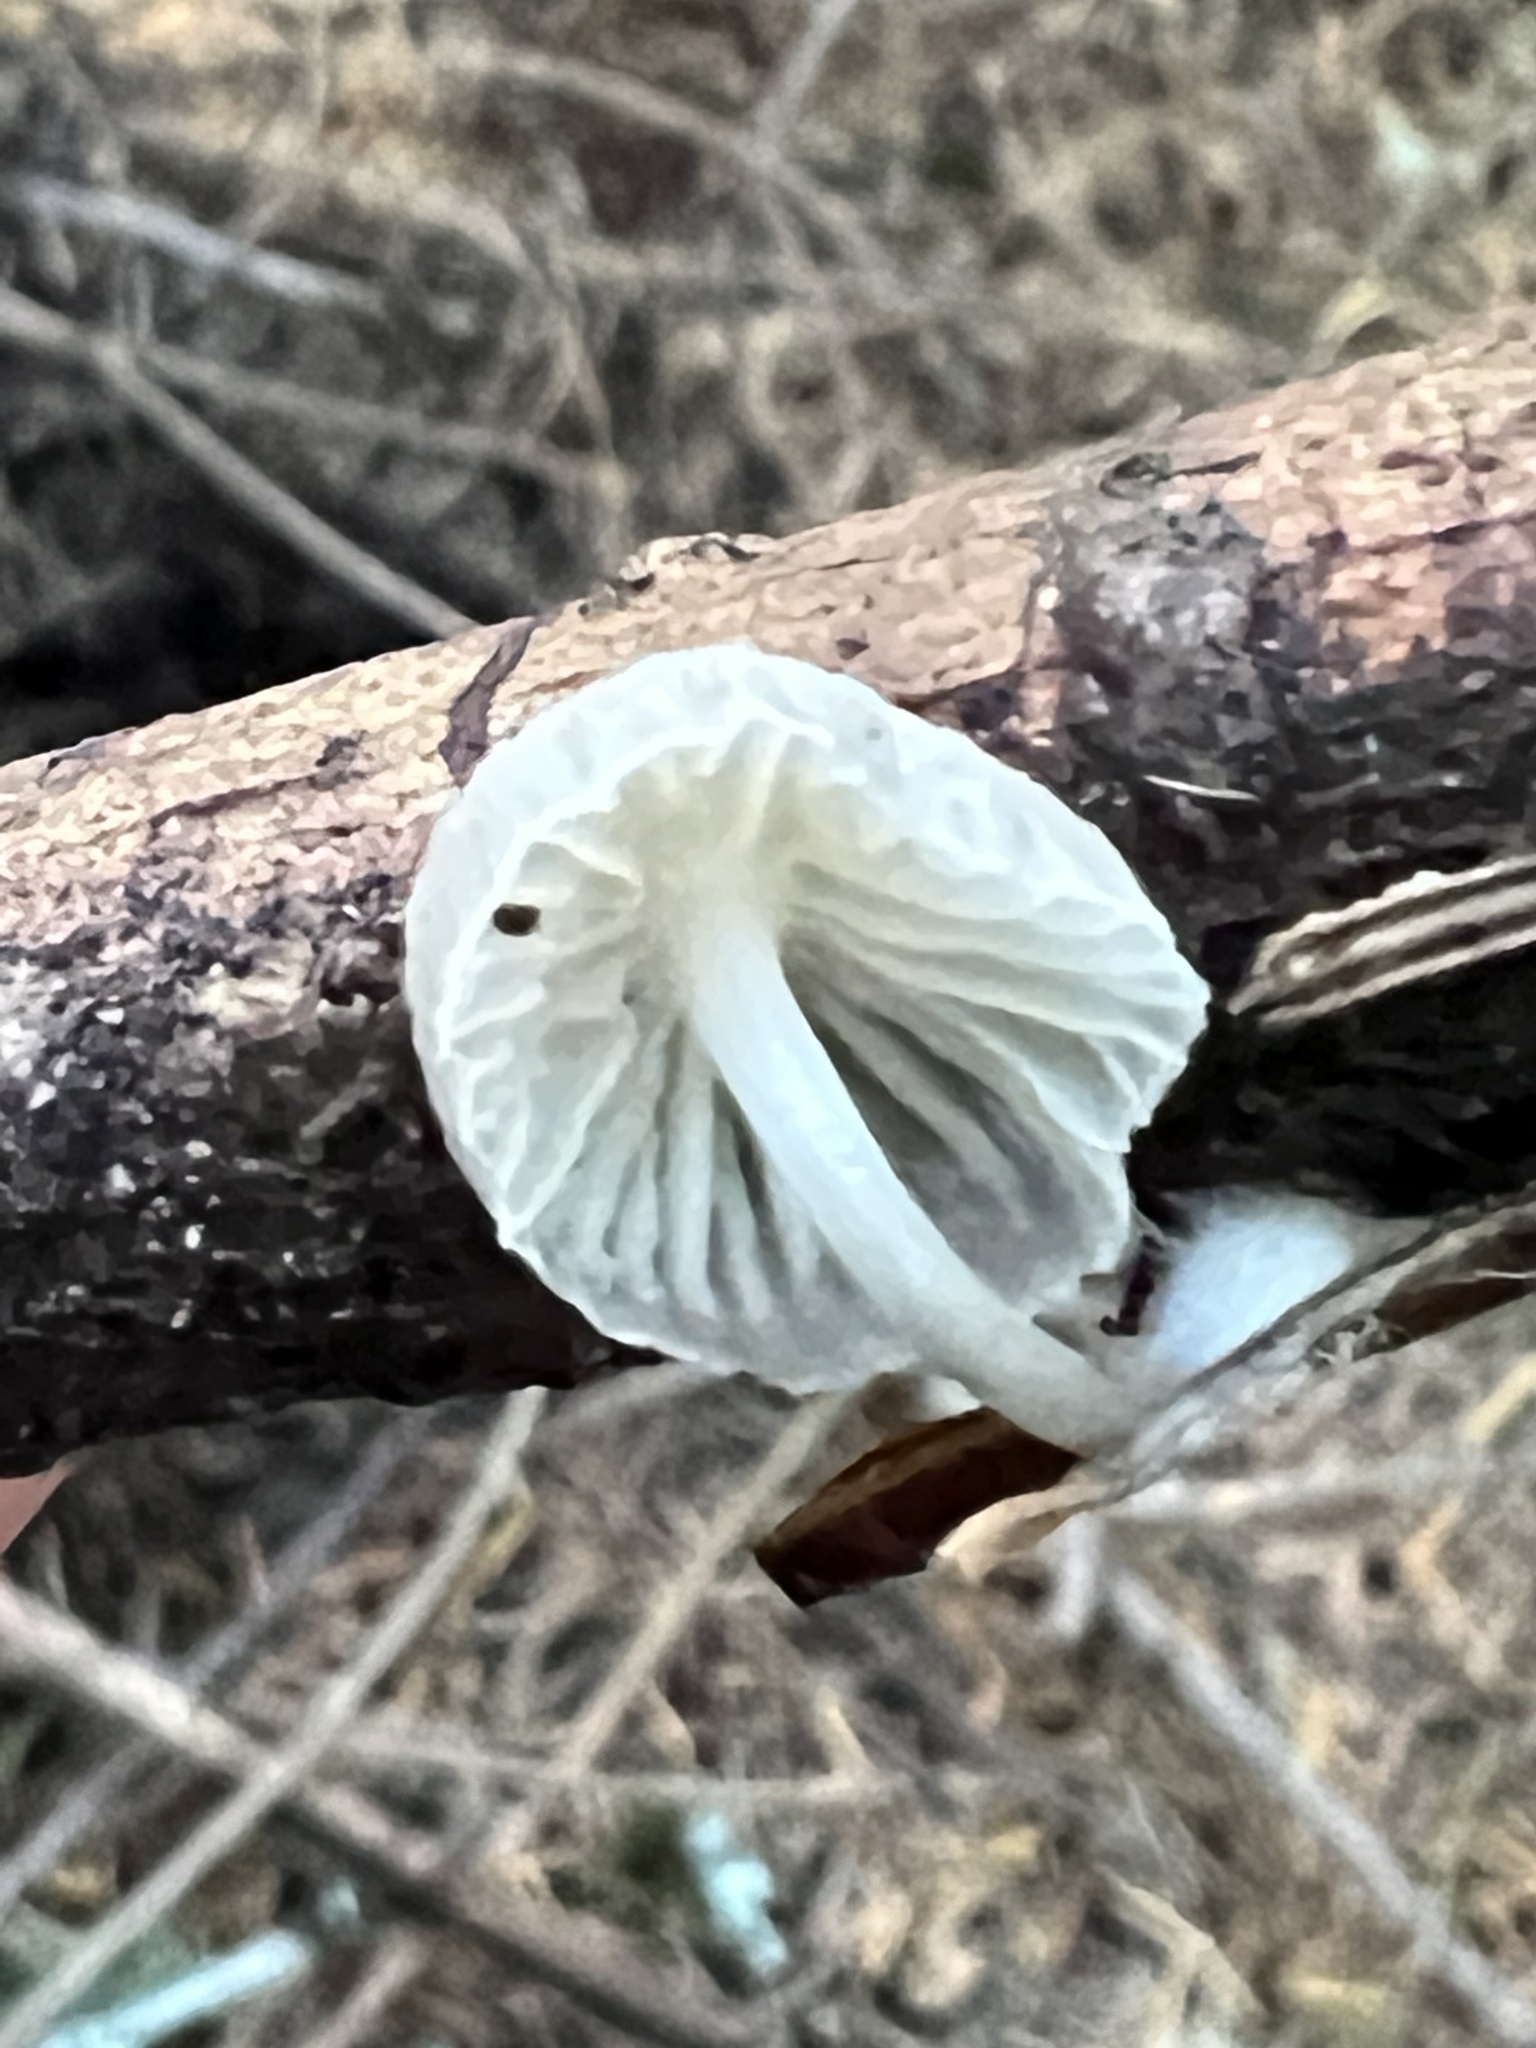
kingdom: Fungi
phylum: Basidiomycota
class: Agaricomycetes
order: Agaricales
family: Omphalotaceae
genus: Marasmiellus
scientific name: Marasmiellus candidus
